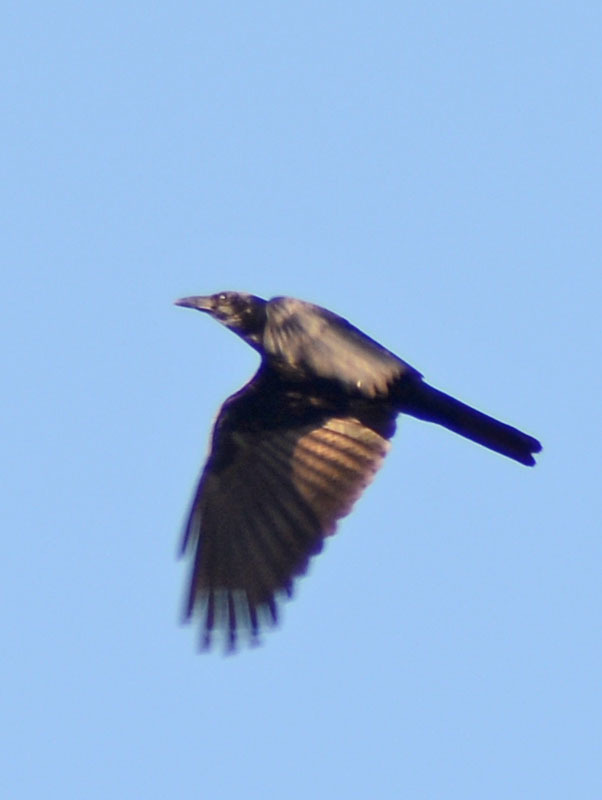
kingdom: Animalia
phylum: Chordata
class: Aves
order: Passeriformes
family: Corvidae
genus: Corvus
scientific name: Corvus corax
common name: Common raven
